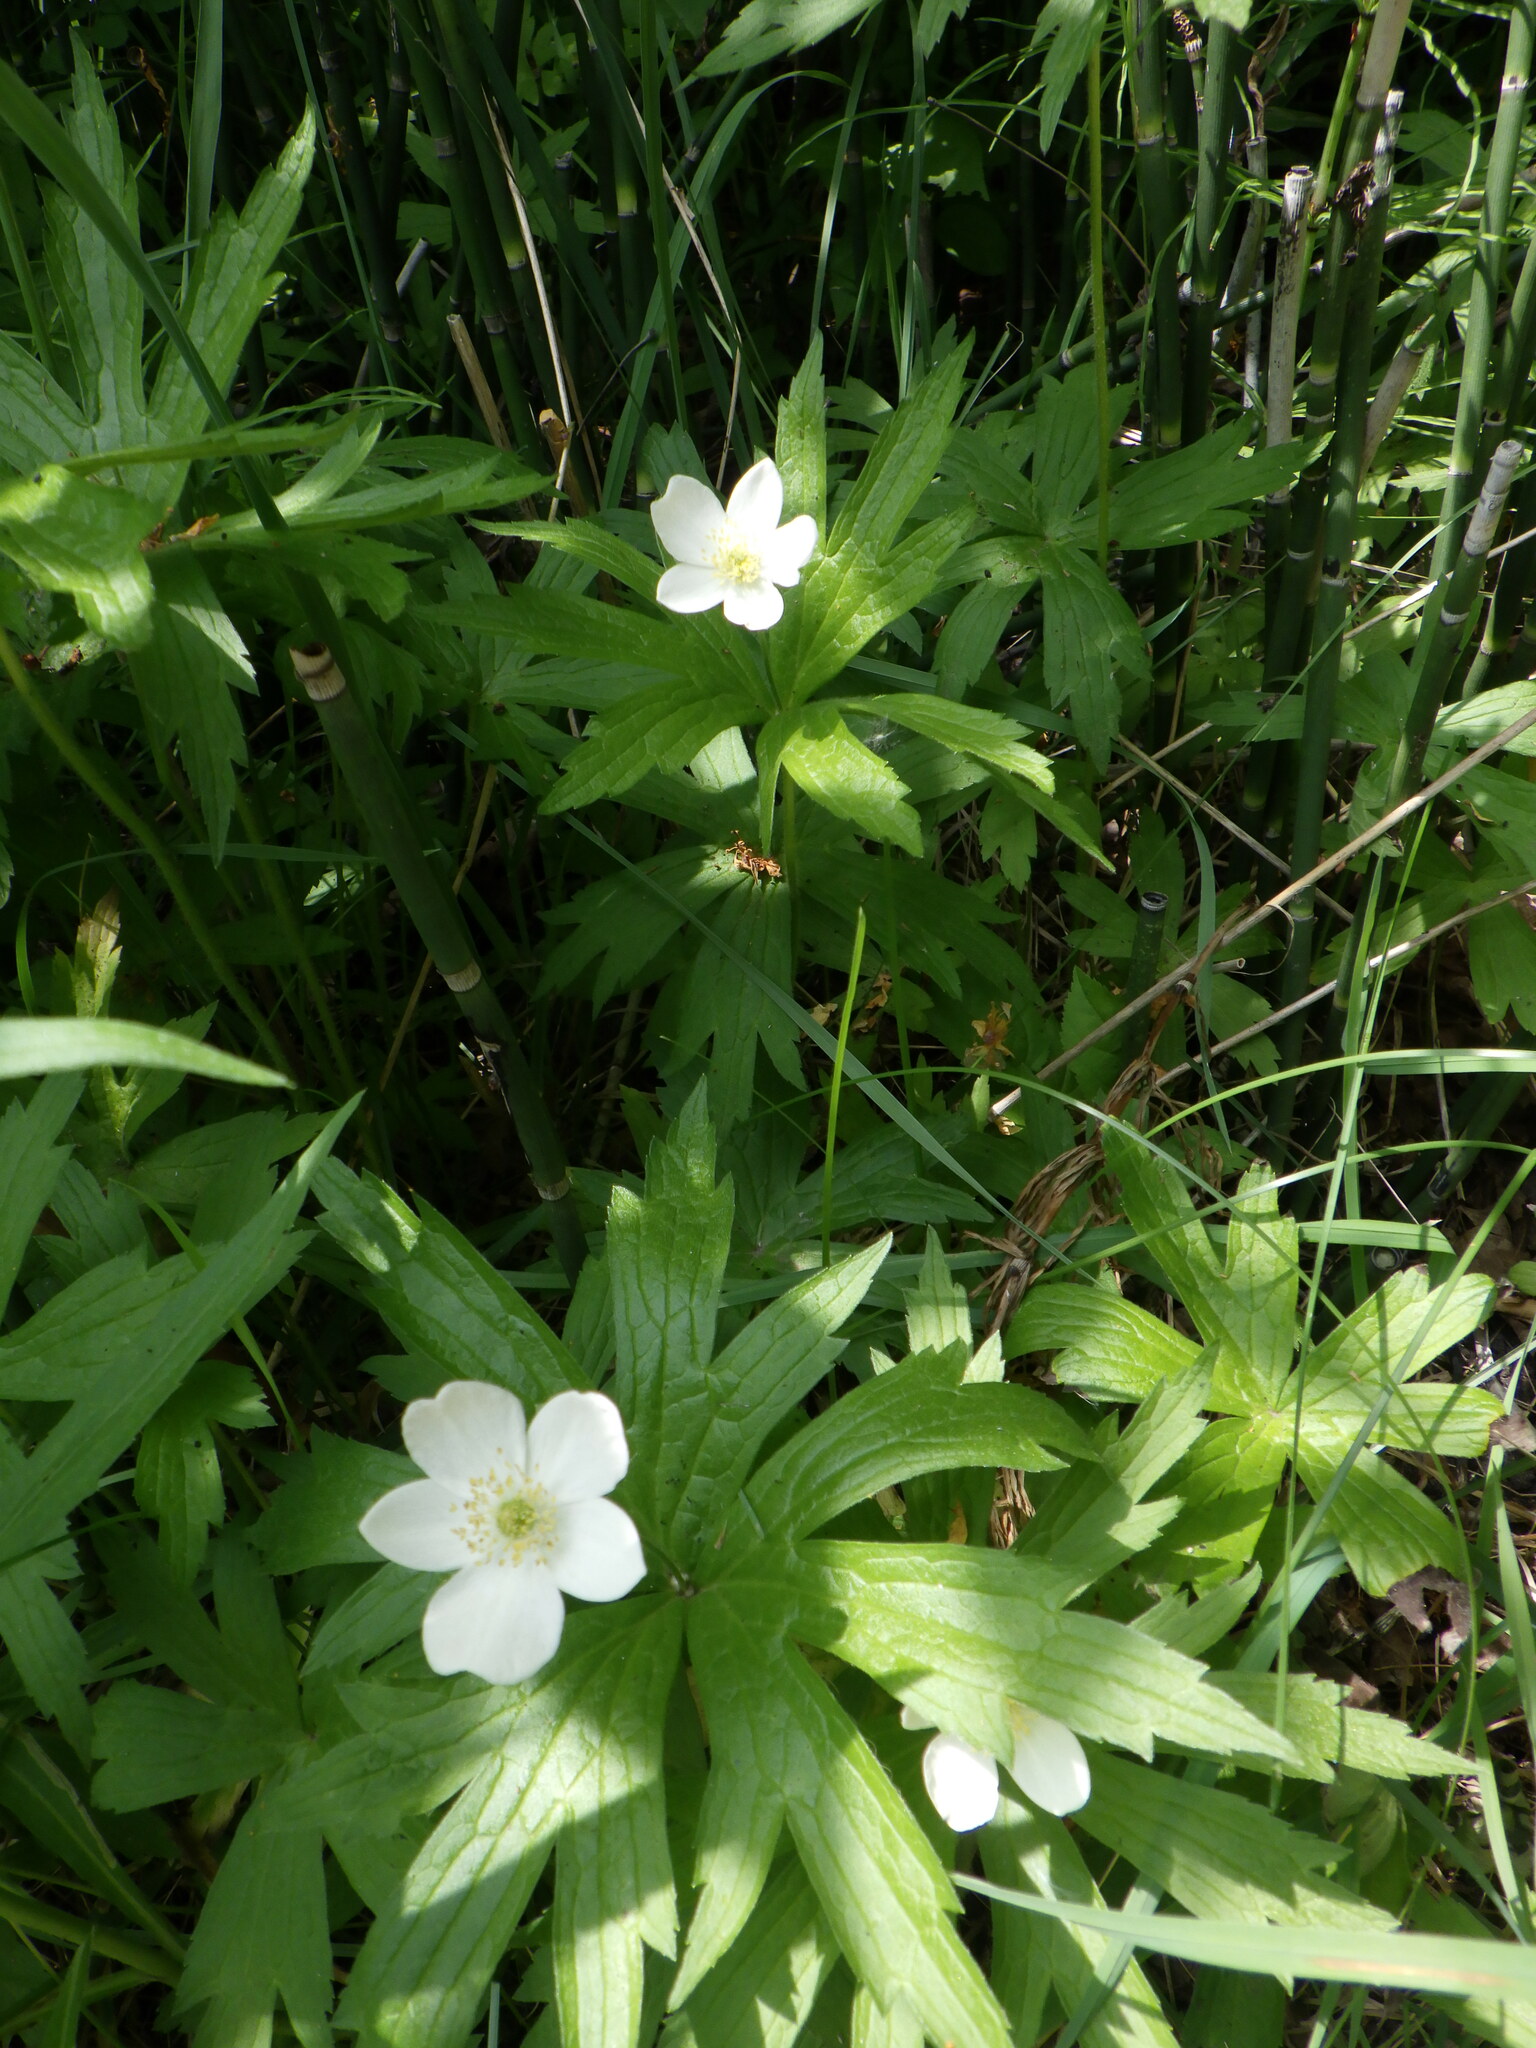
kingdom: Plantae
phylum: Tracheophyta
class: Magnoliopsida
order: Ranunculales
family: Ranunculaceae
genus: Anemonastrum
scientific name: Anemonastrum canadense
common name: Canada anemone
